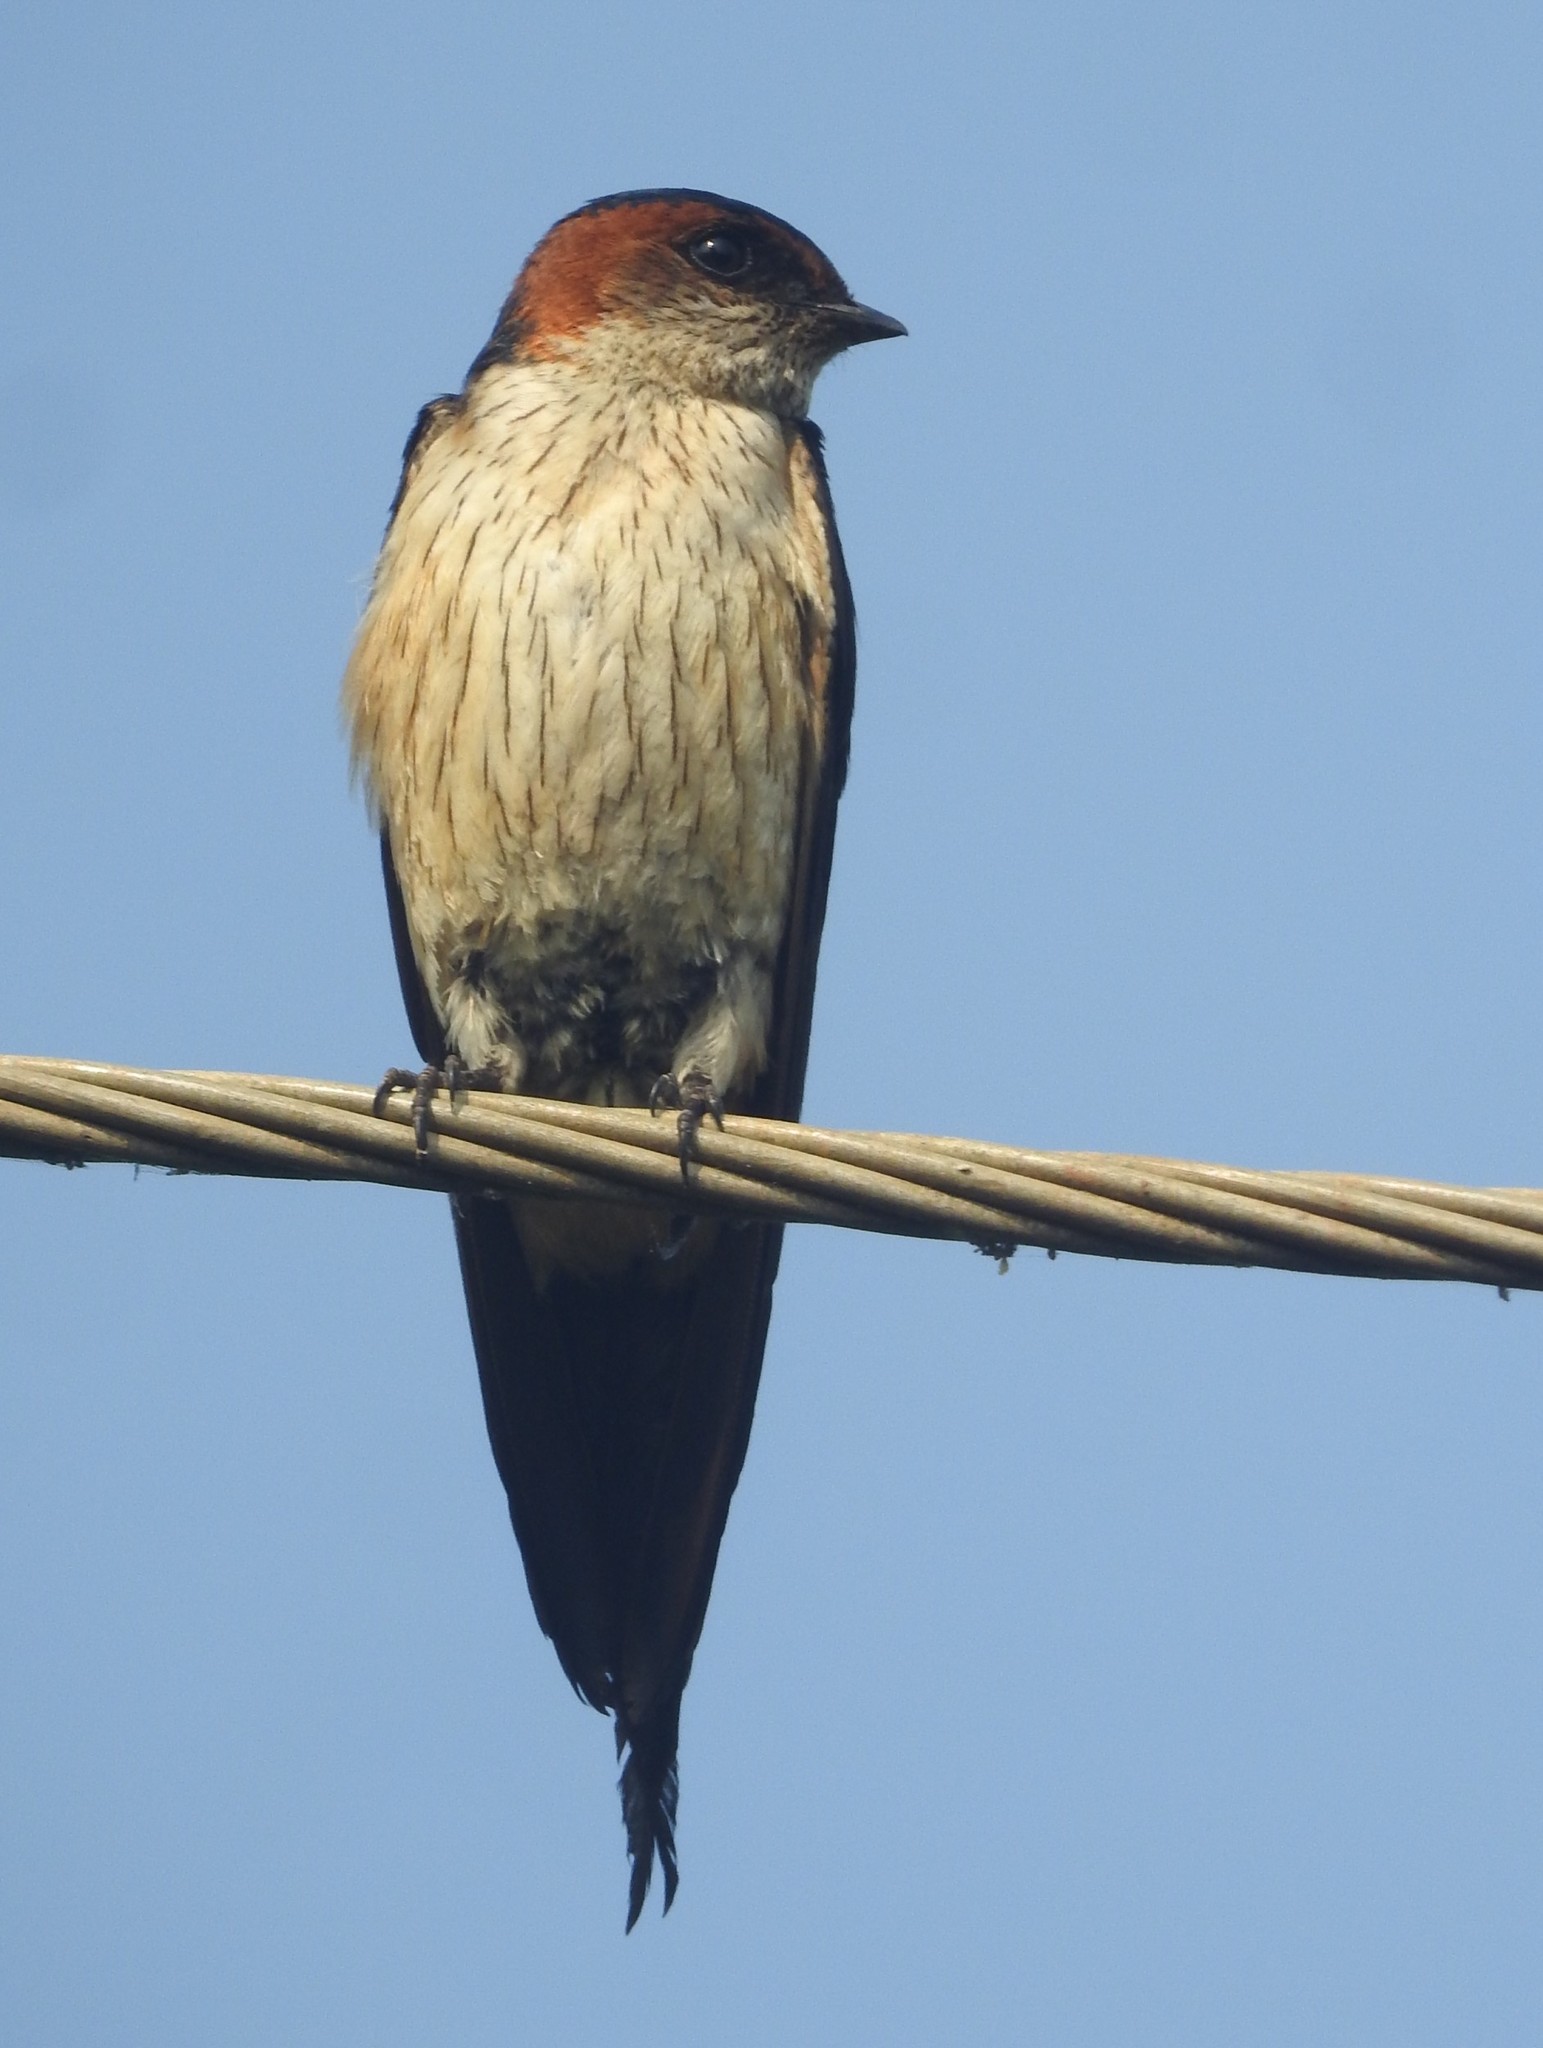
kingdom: Animalia
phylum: Chordata
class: Aves
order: Passeriformes
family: Hirundinidae
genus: Cecropis
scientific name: Cecropis daurica
